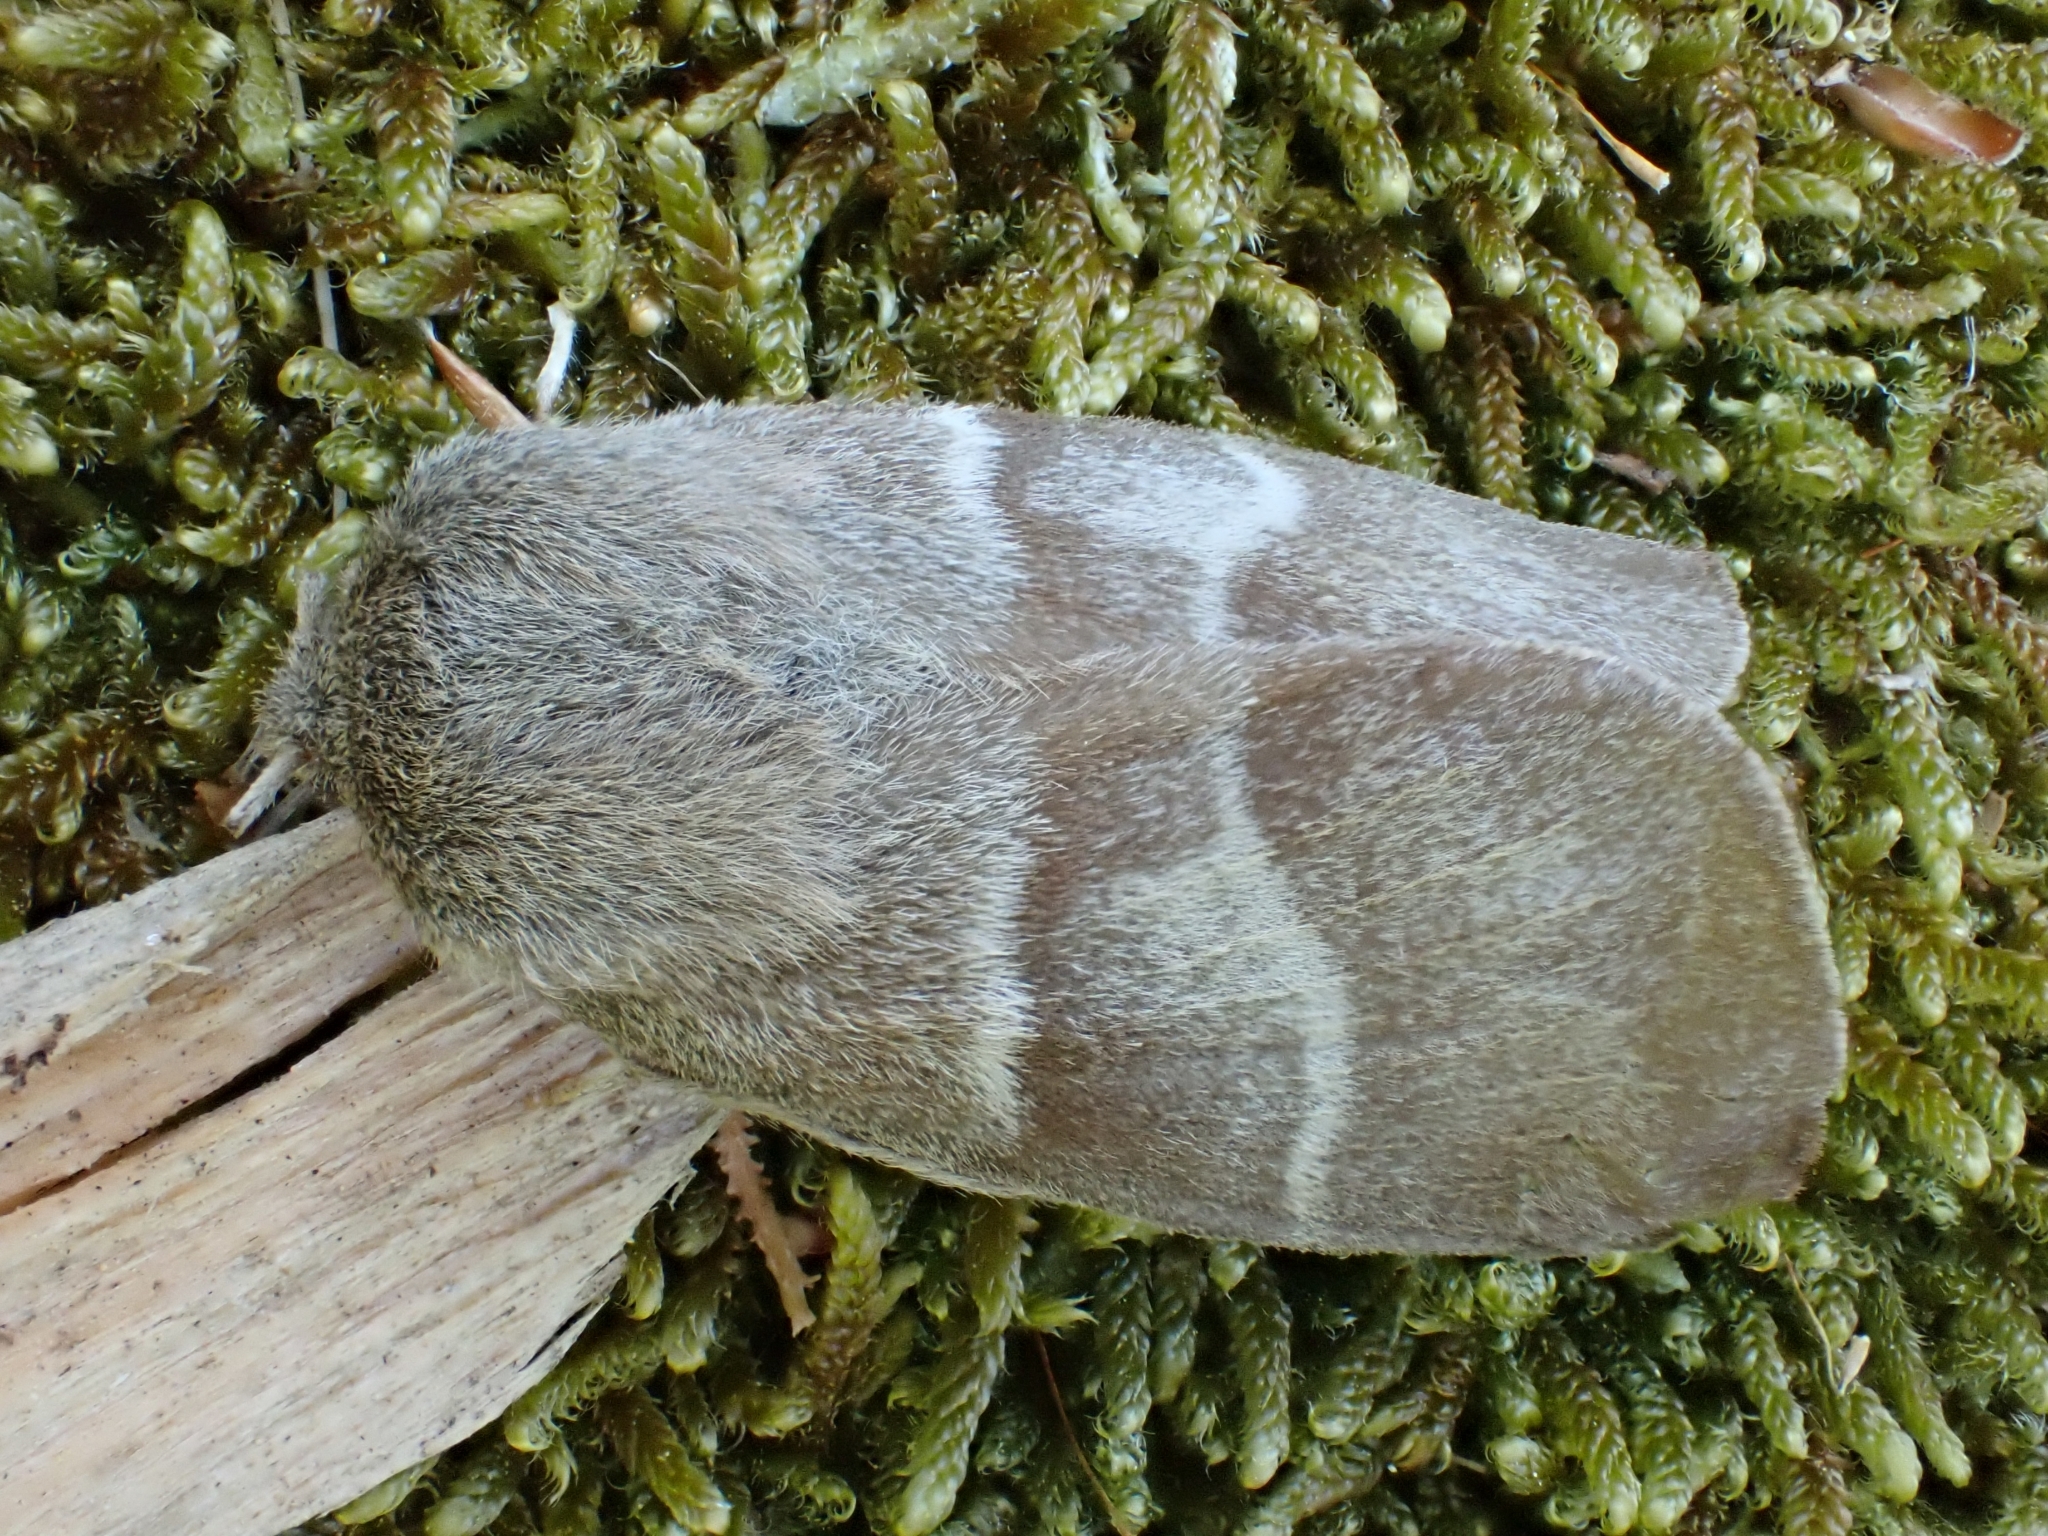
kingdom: Animalia
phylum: Arthropoda
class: Insecta
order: Lepidoptera
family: Lasiocampidae
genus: Macrothylacia
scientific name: Macrothylacia rubi
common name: Fox moth
